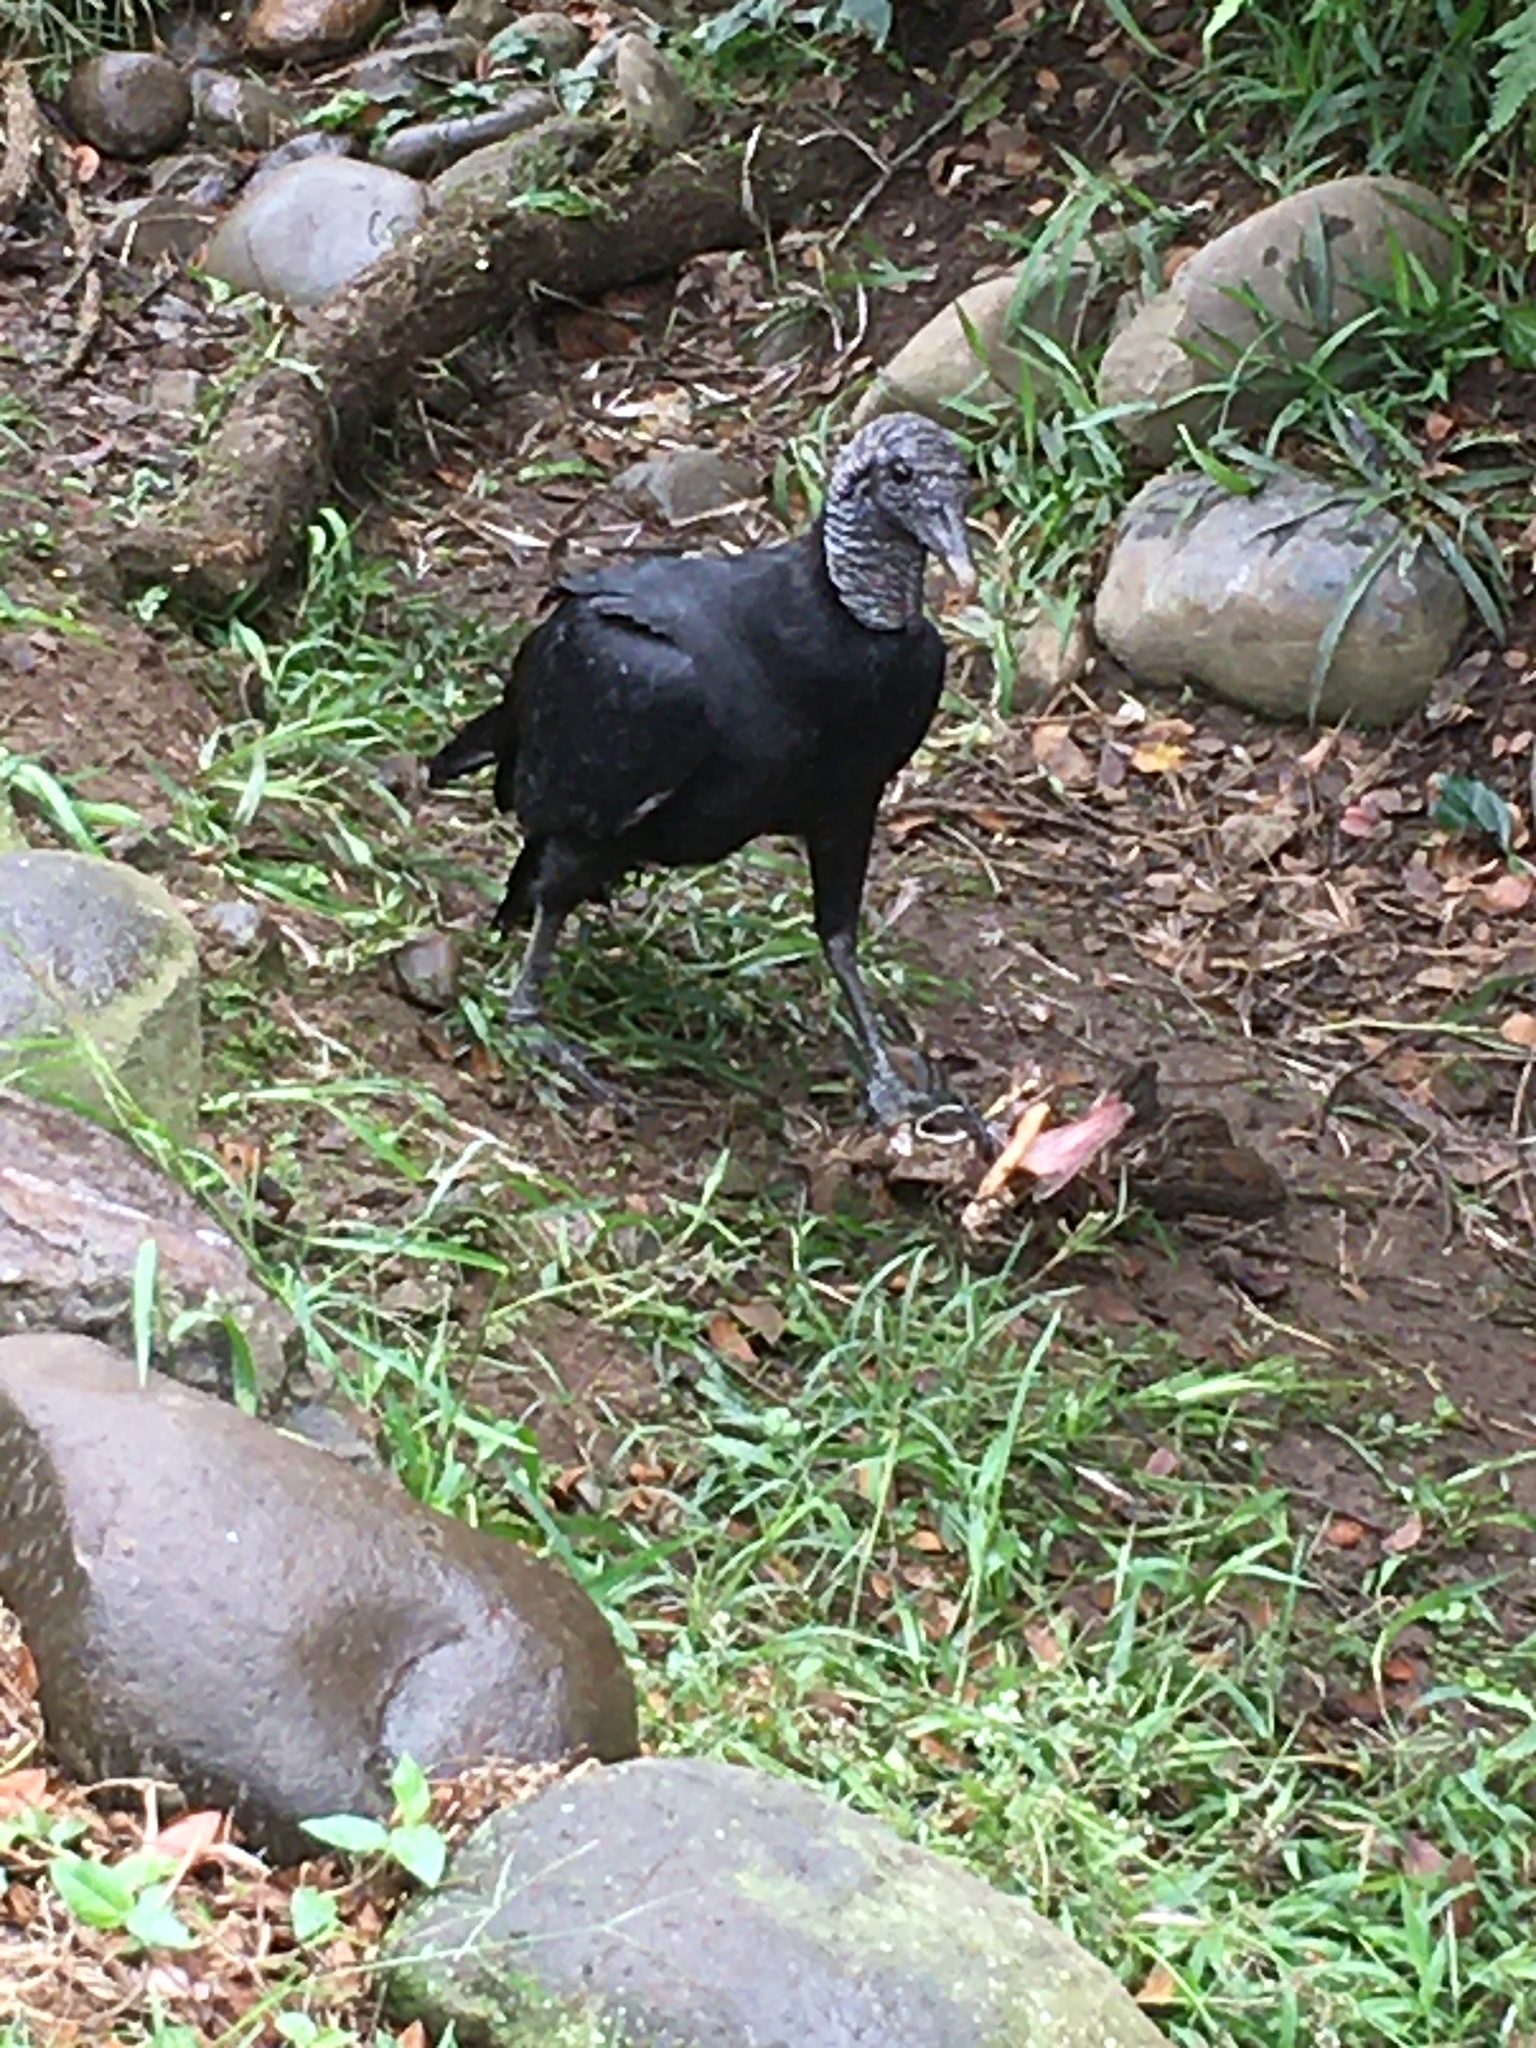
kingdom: Animalia
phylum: Chordata
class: Aves
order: Accipitriformes
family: Cathartidae
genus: Coragyps
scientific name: Coragyps atratus
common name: Black vulture
